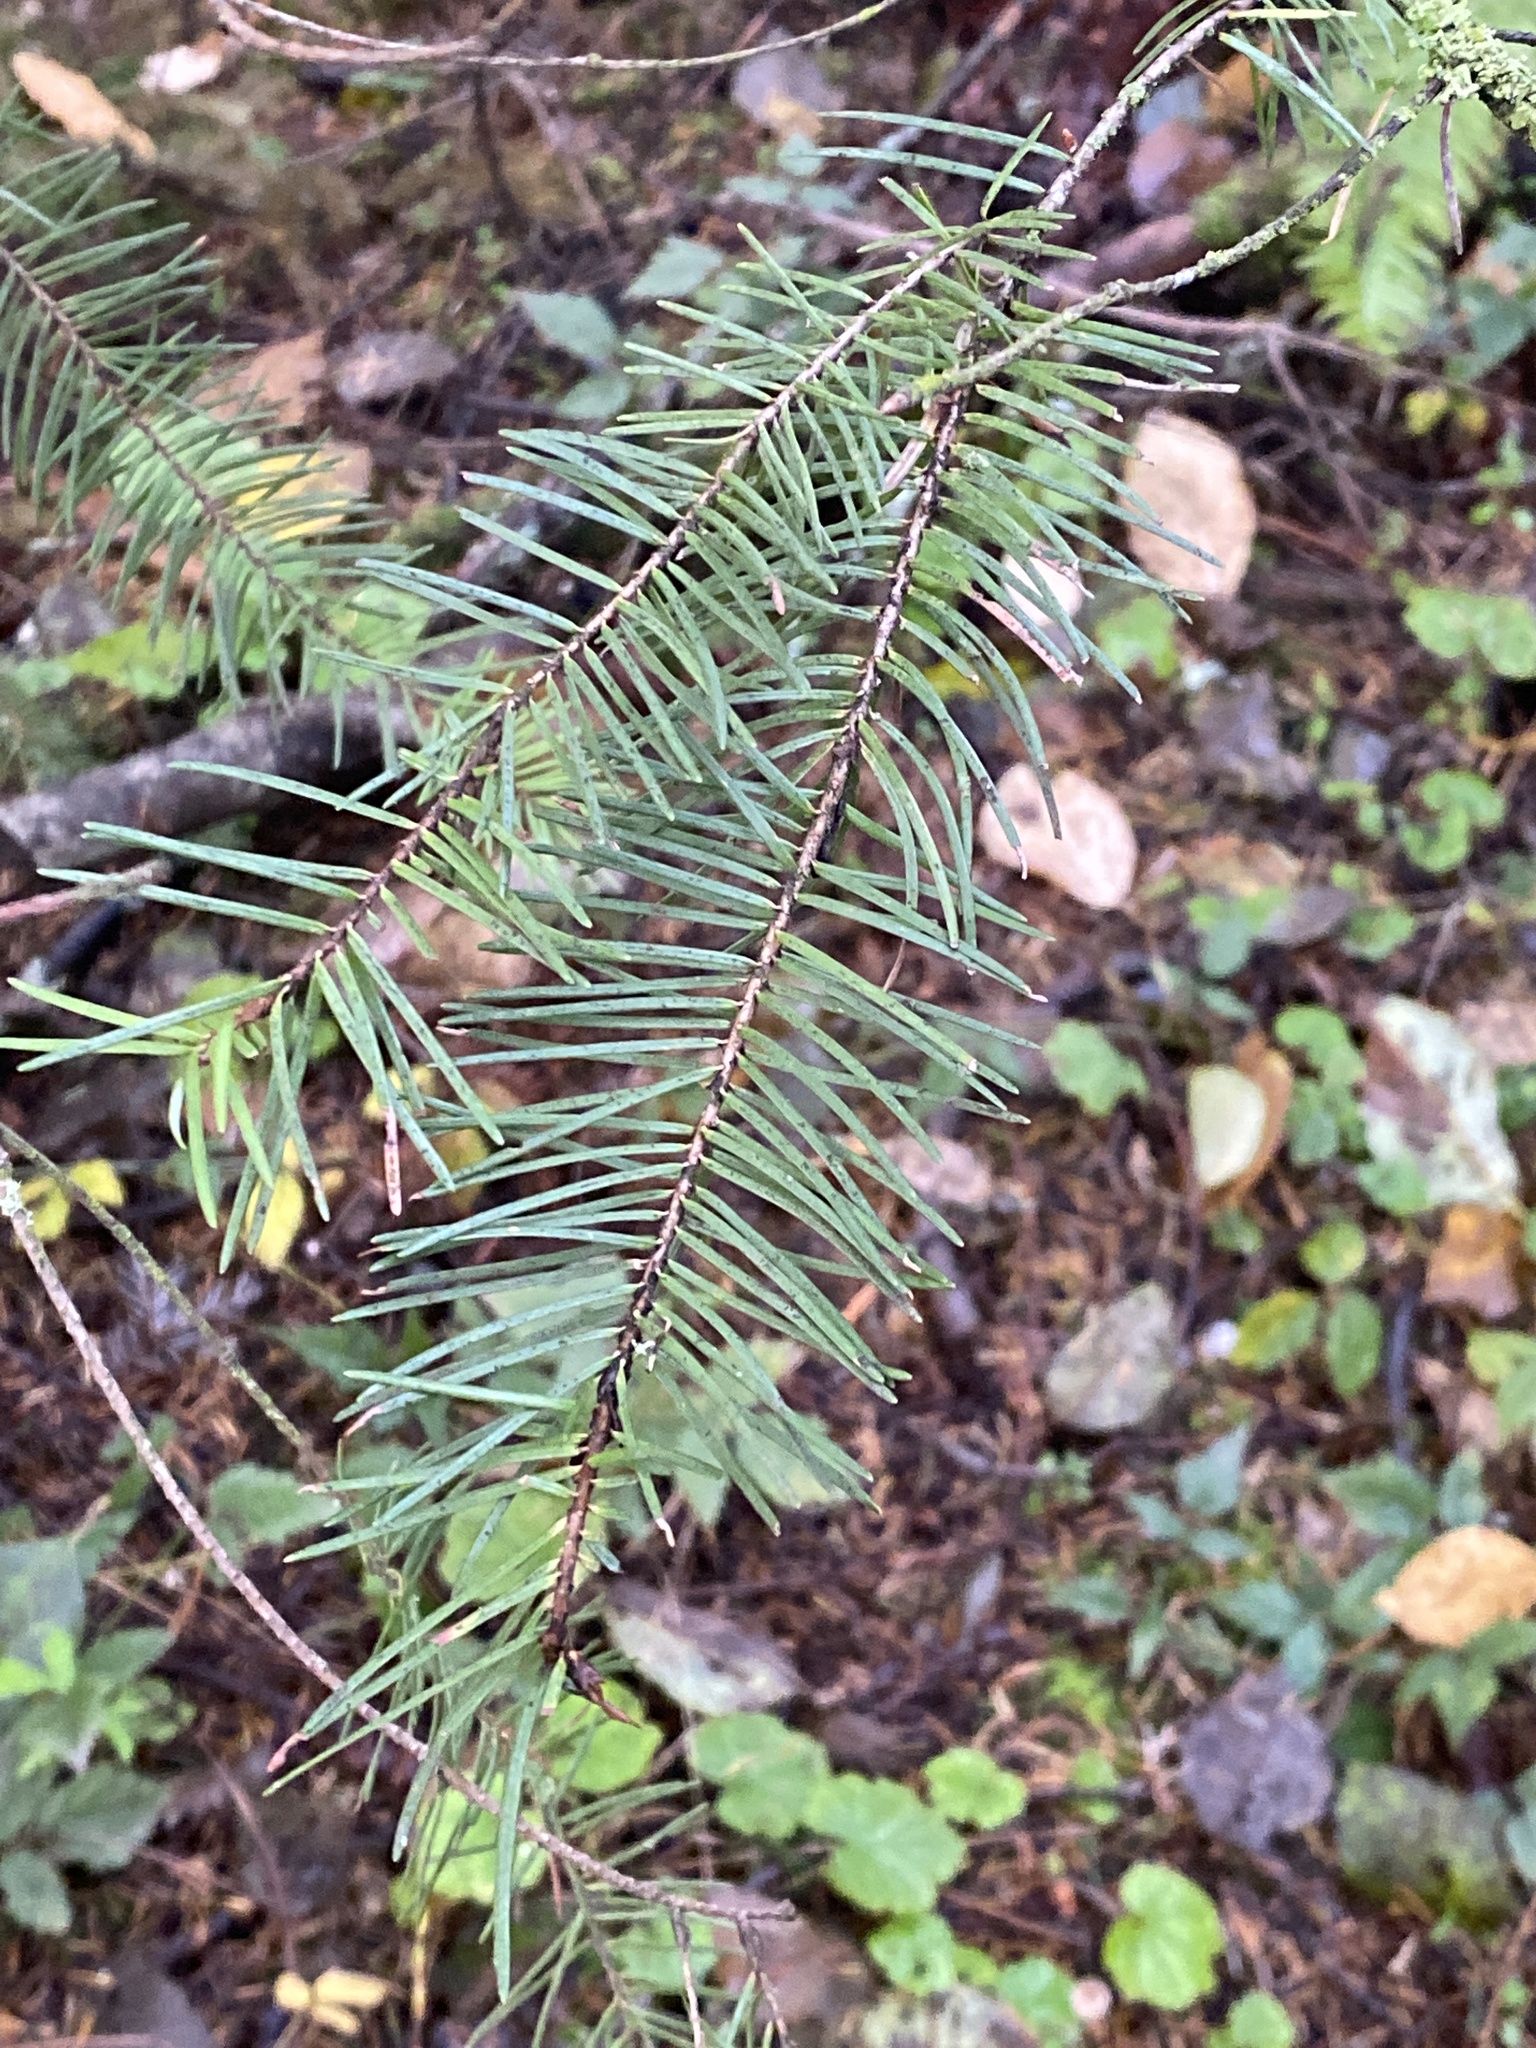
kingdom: Plantae
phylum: Tracheophyta
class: Pinopsida
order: Pinales
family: Pinaceae
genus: Pseudotsuga
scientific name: Pseudotsuga menziesii
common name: Douglas fir
